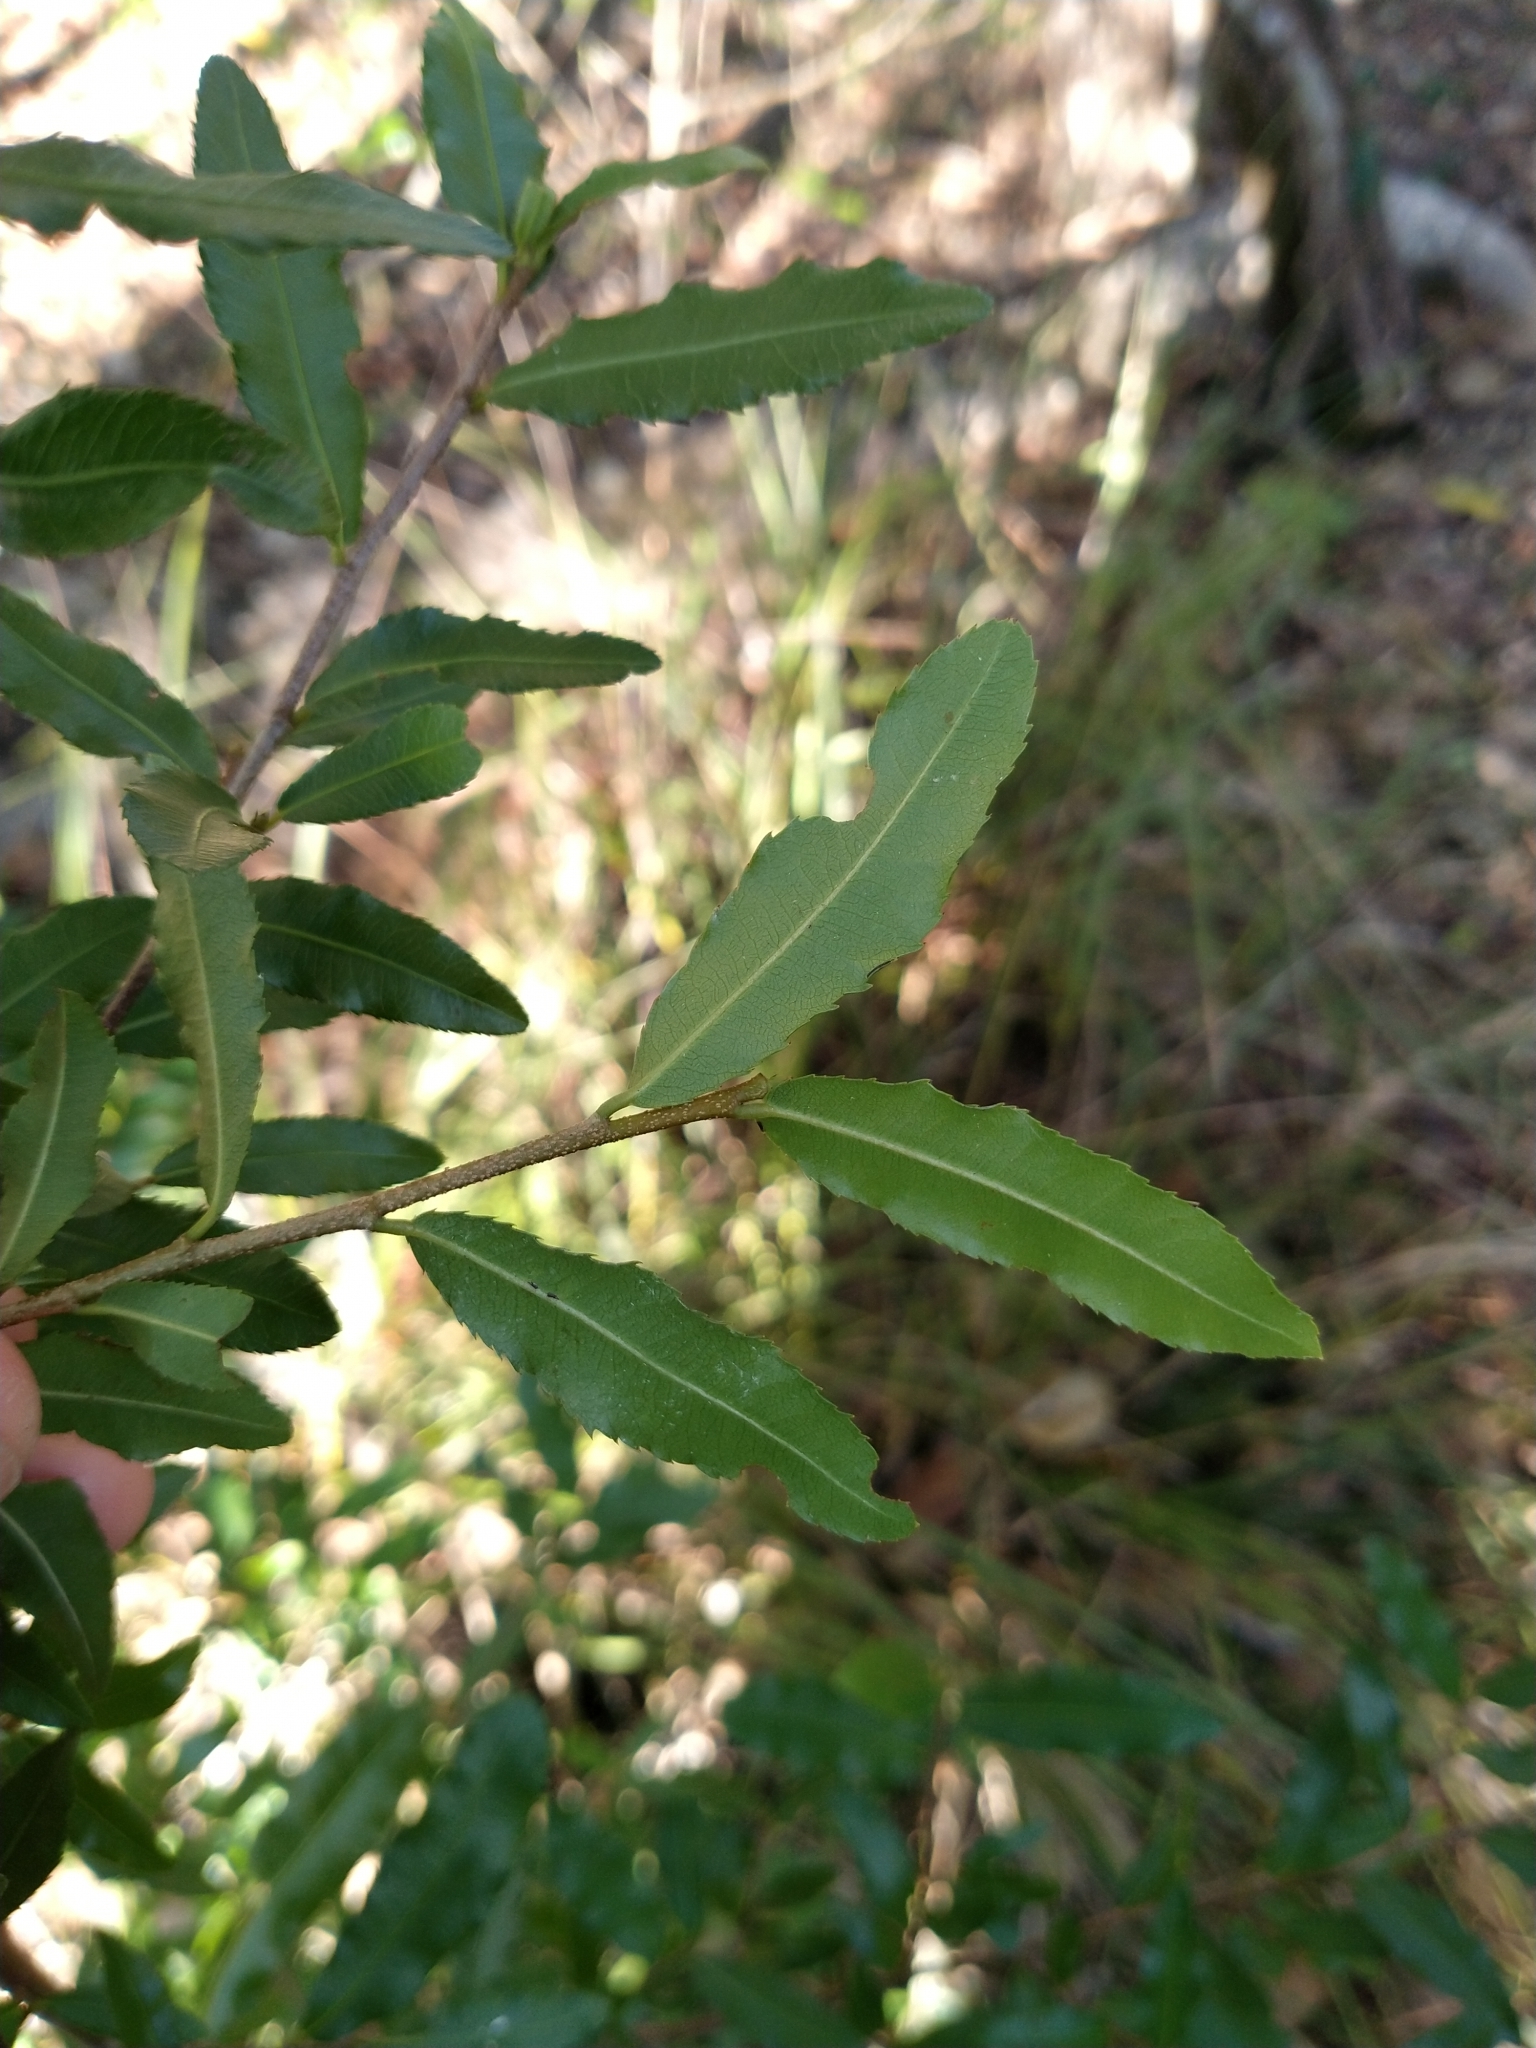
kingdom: Plantae
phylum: Tracheophyta
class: Magnoliopsida
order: Malpighiales
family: Ochnaceae
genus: Ochna
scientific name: Ochna serrulata
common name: Mickey mouse plant
